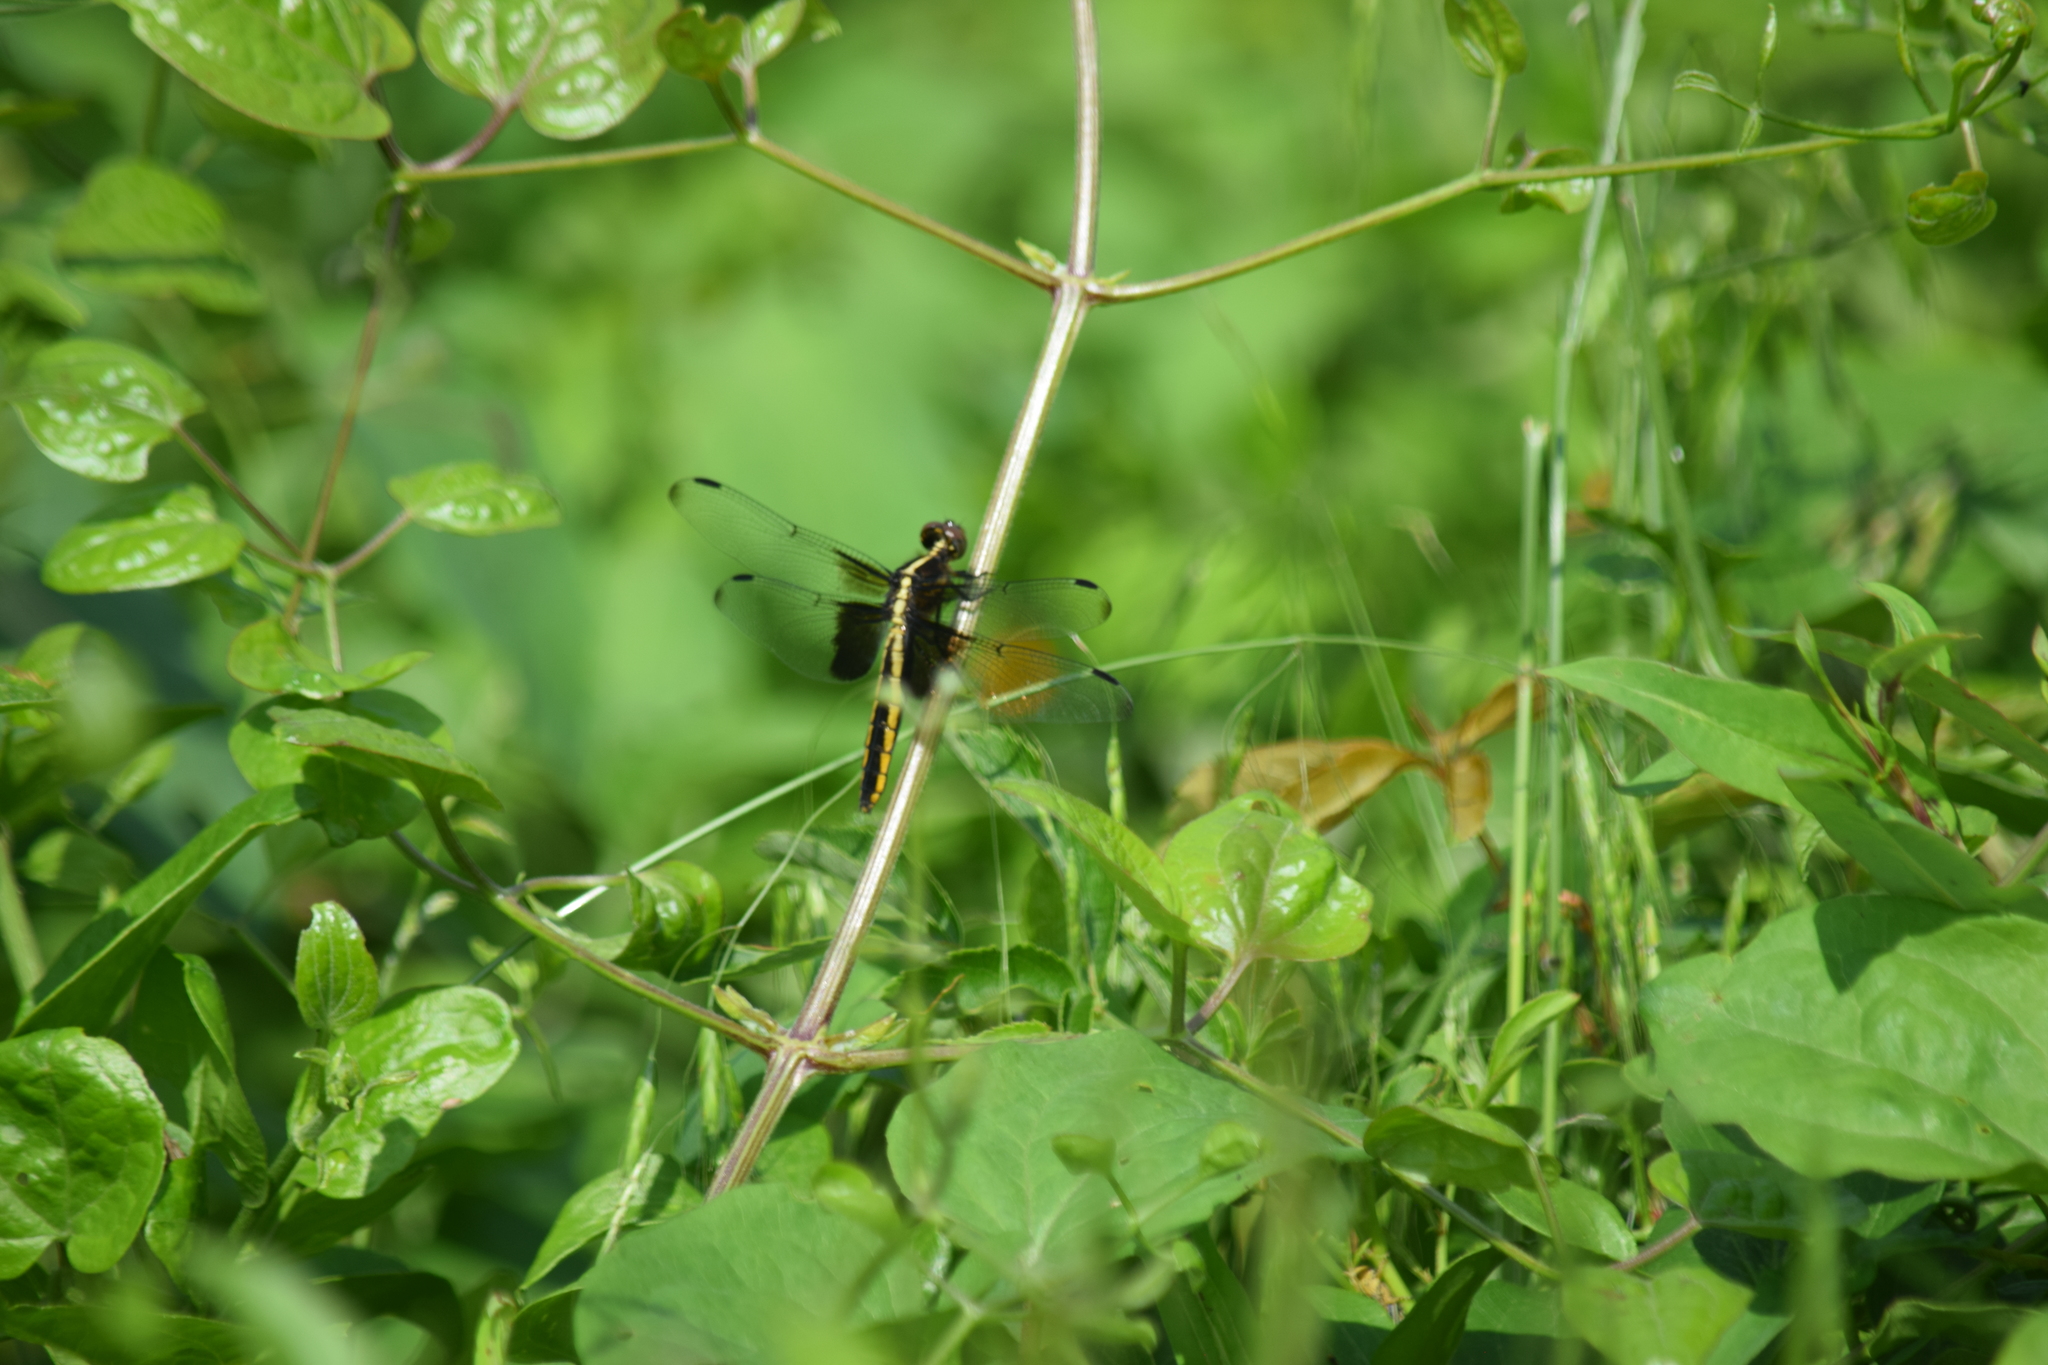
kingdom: Animalia
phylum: Arthropoda
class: Insecta
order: Odonata
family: Libellulidae
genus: Libellula
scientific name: Libellula luctuosa
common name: Widow skimmer
